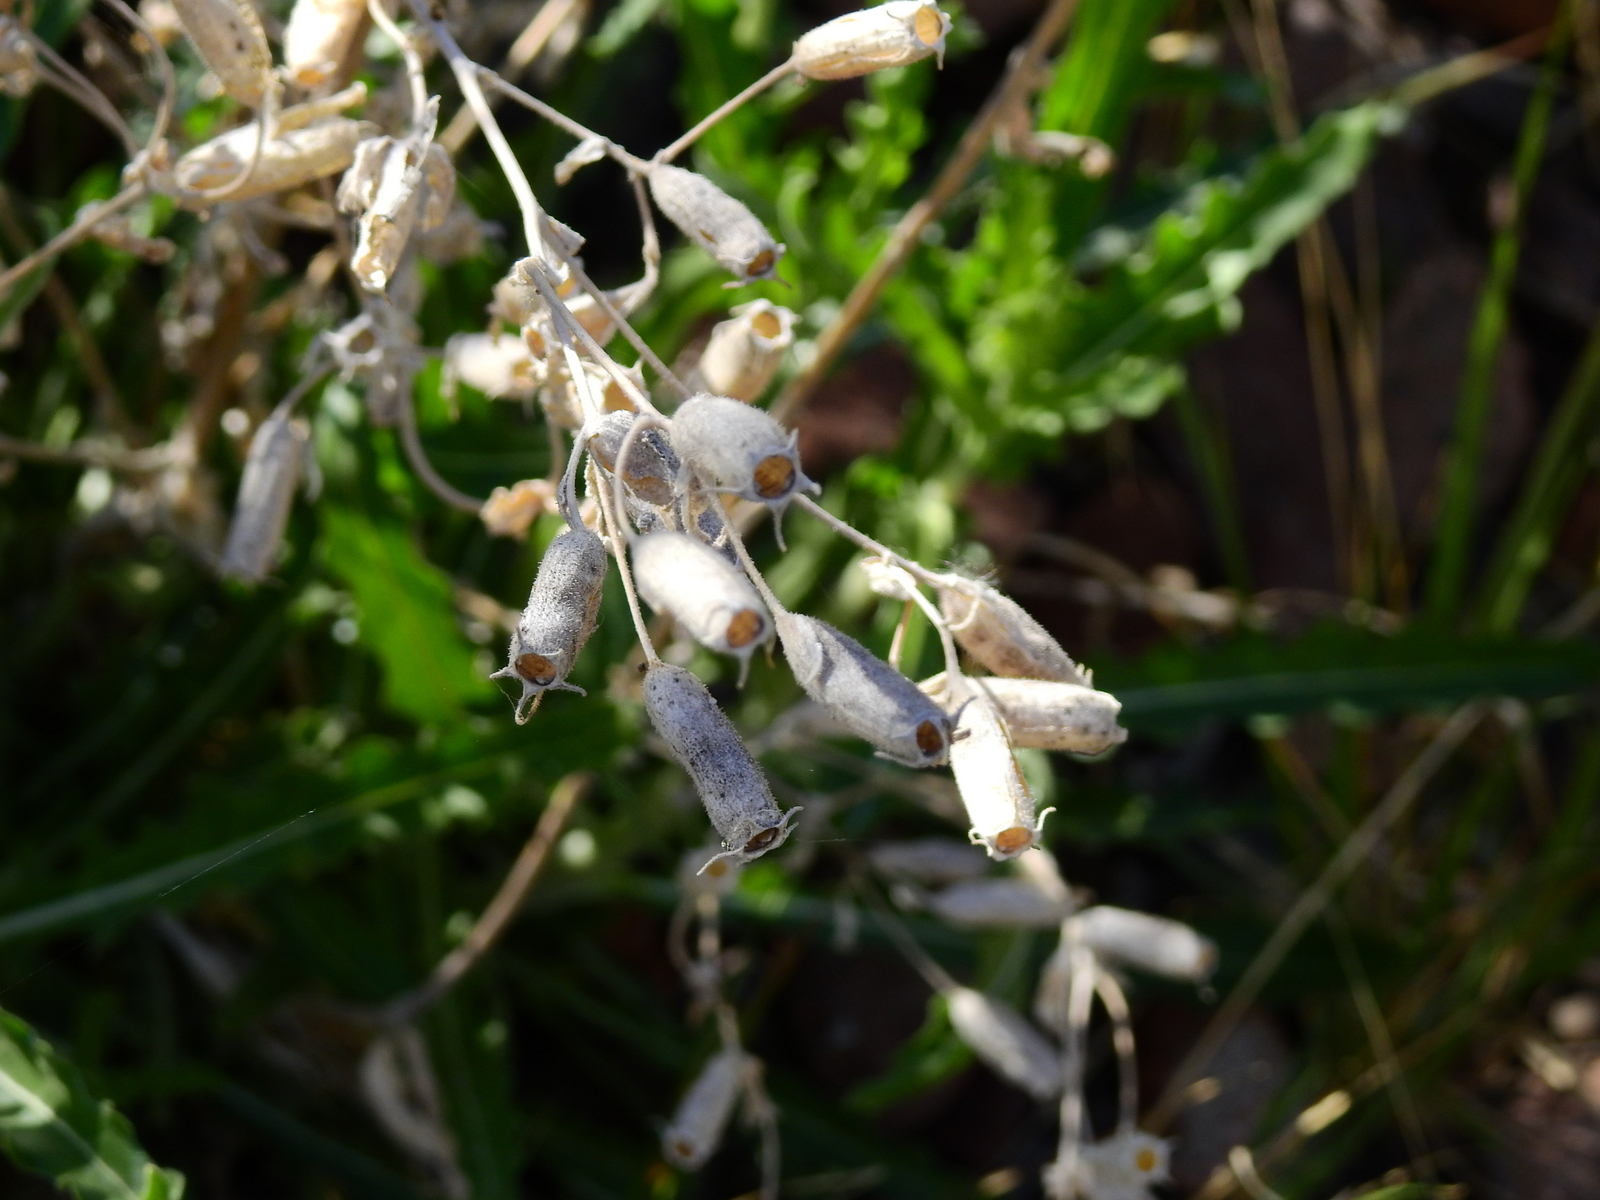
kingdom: Plantae
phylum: Tracheophyta
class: Magnoliopsida
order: Cornales
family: Loasaceae
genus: Mentzelia
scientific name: Mentzelia albescens
